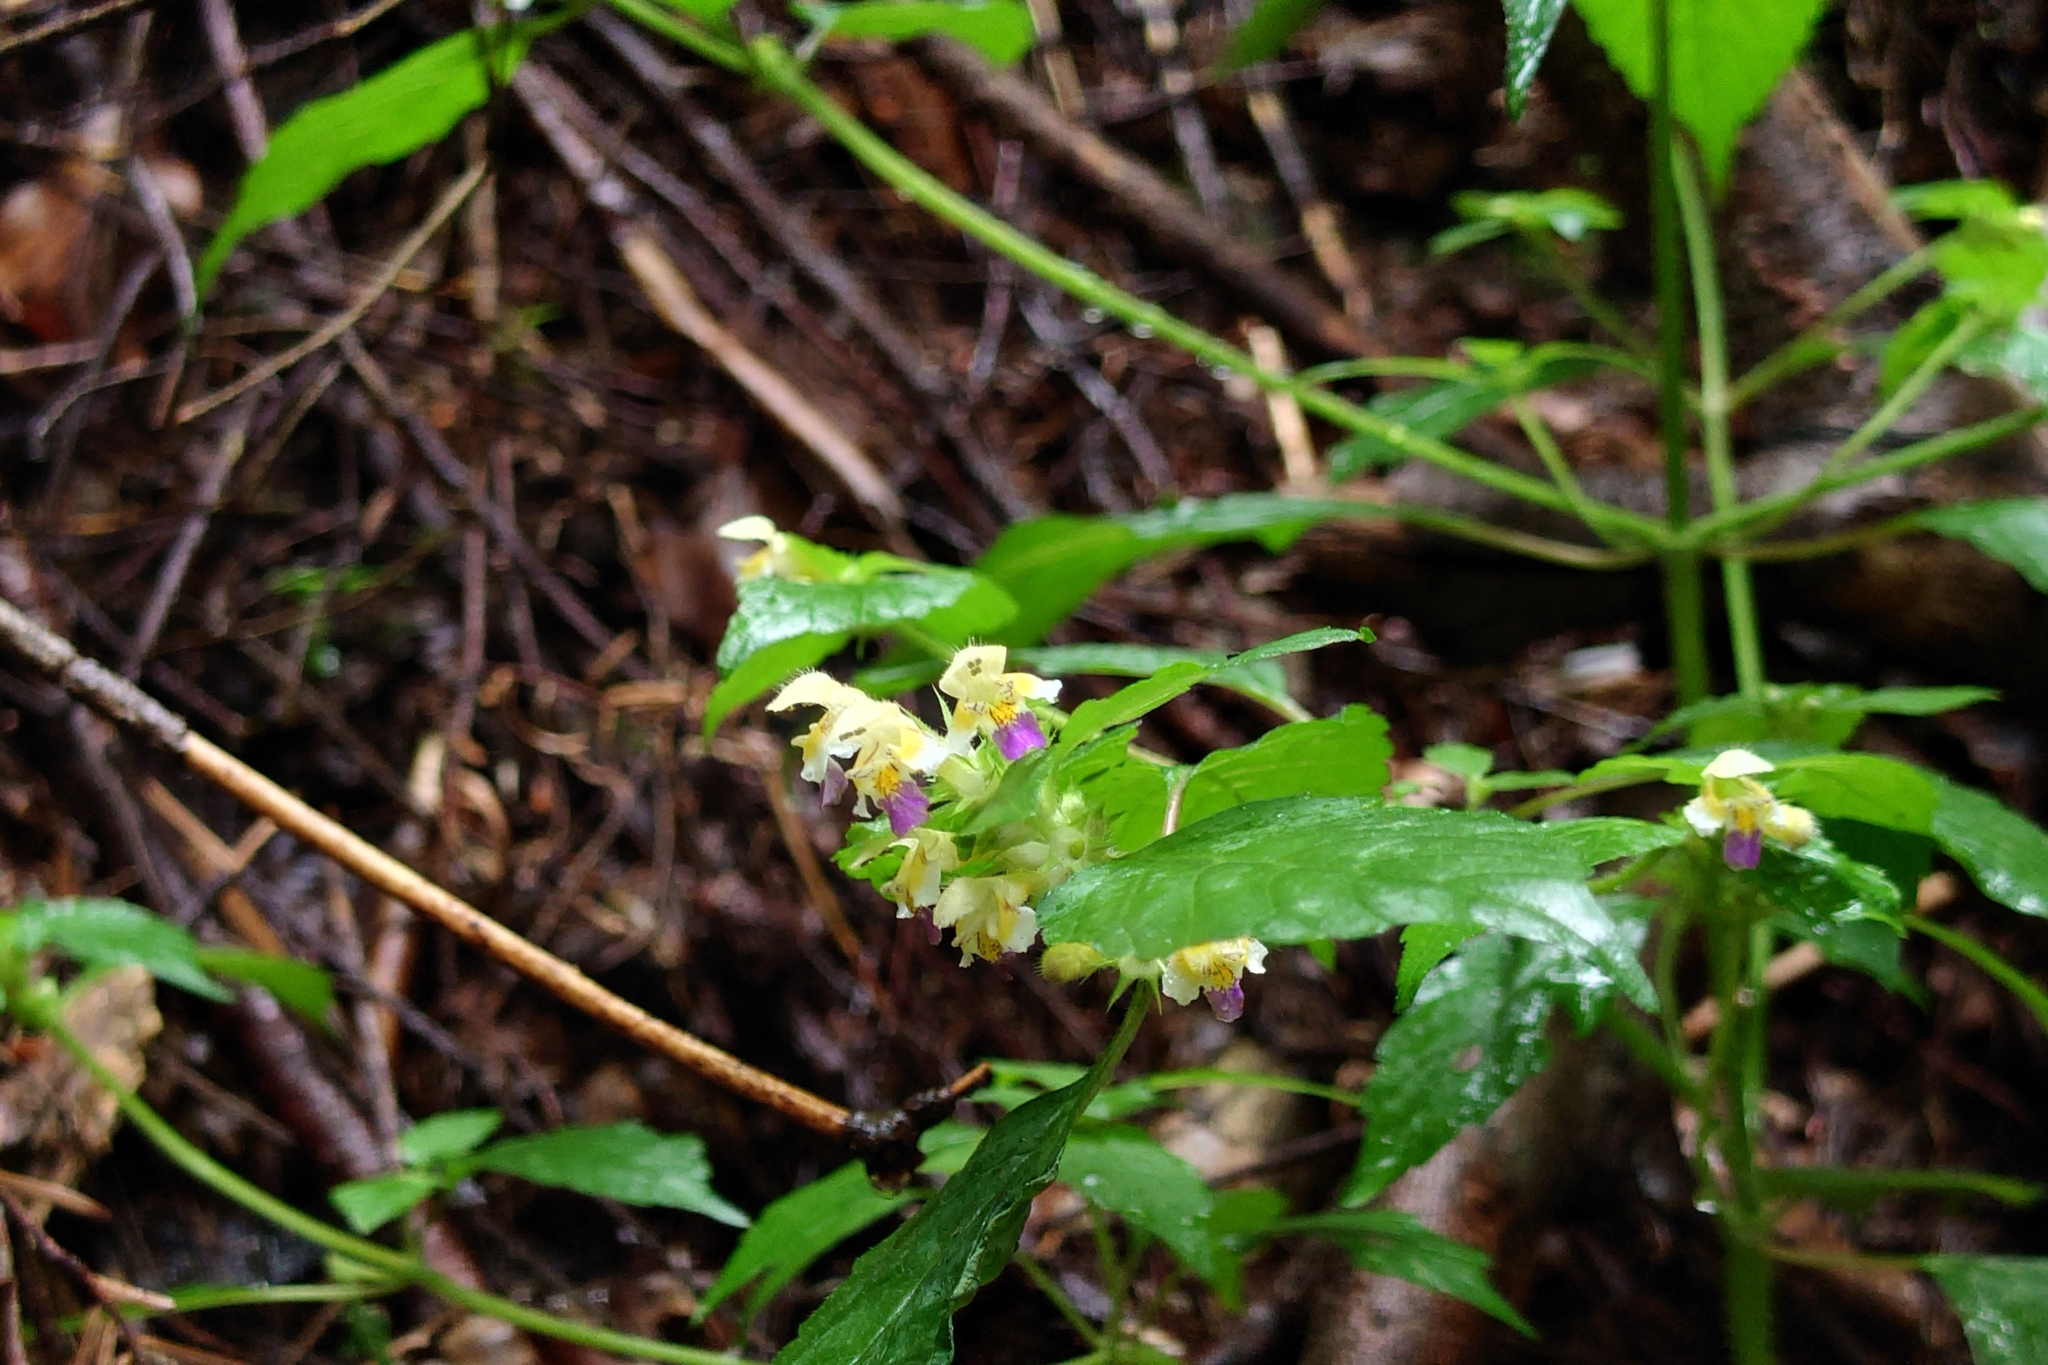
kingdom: Plantae
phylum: Tracheophyta
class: Magnoliopsida
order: Lamiales
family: Lamiaceae
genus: Galeopsis
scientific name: Galeopsis speciosa
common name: Large-flowered hemp-nettle
